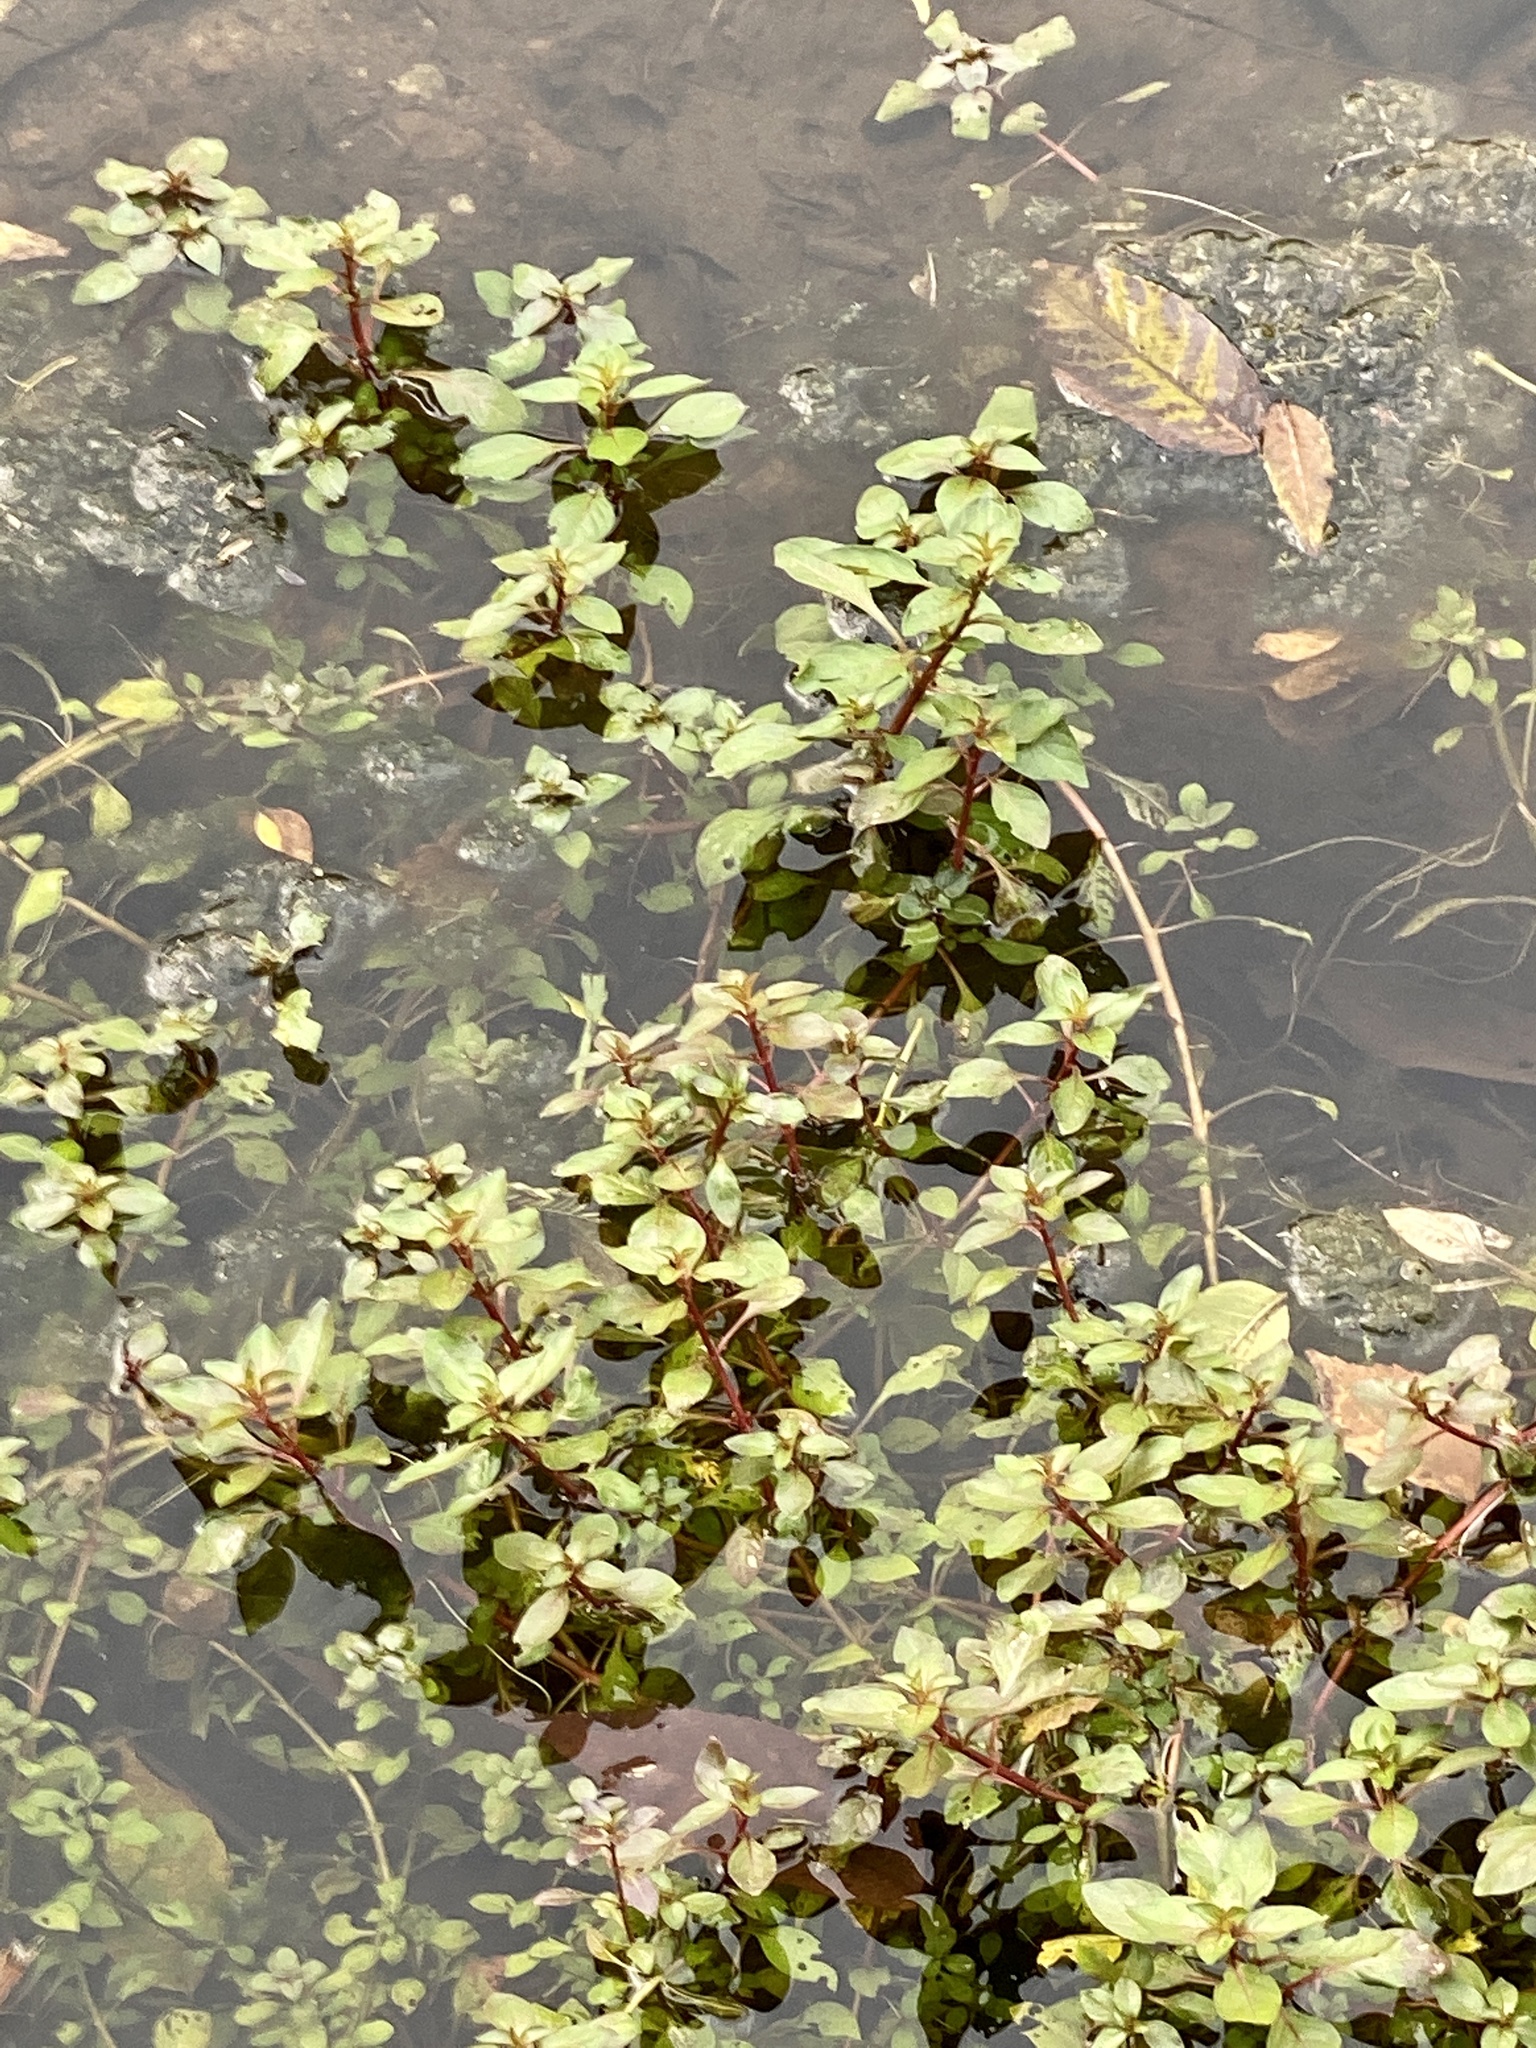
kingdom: Plantae
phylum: Tracheophyta
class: Magnoliopsida
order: Myrtales
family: Onagraceae
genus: Ludwigia
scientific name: Ludwigia palustris
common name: Hampshire-purslane
